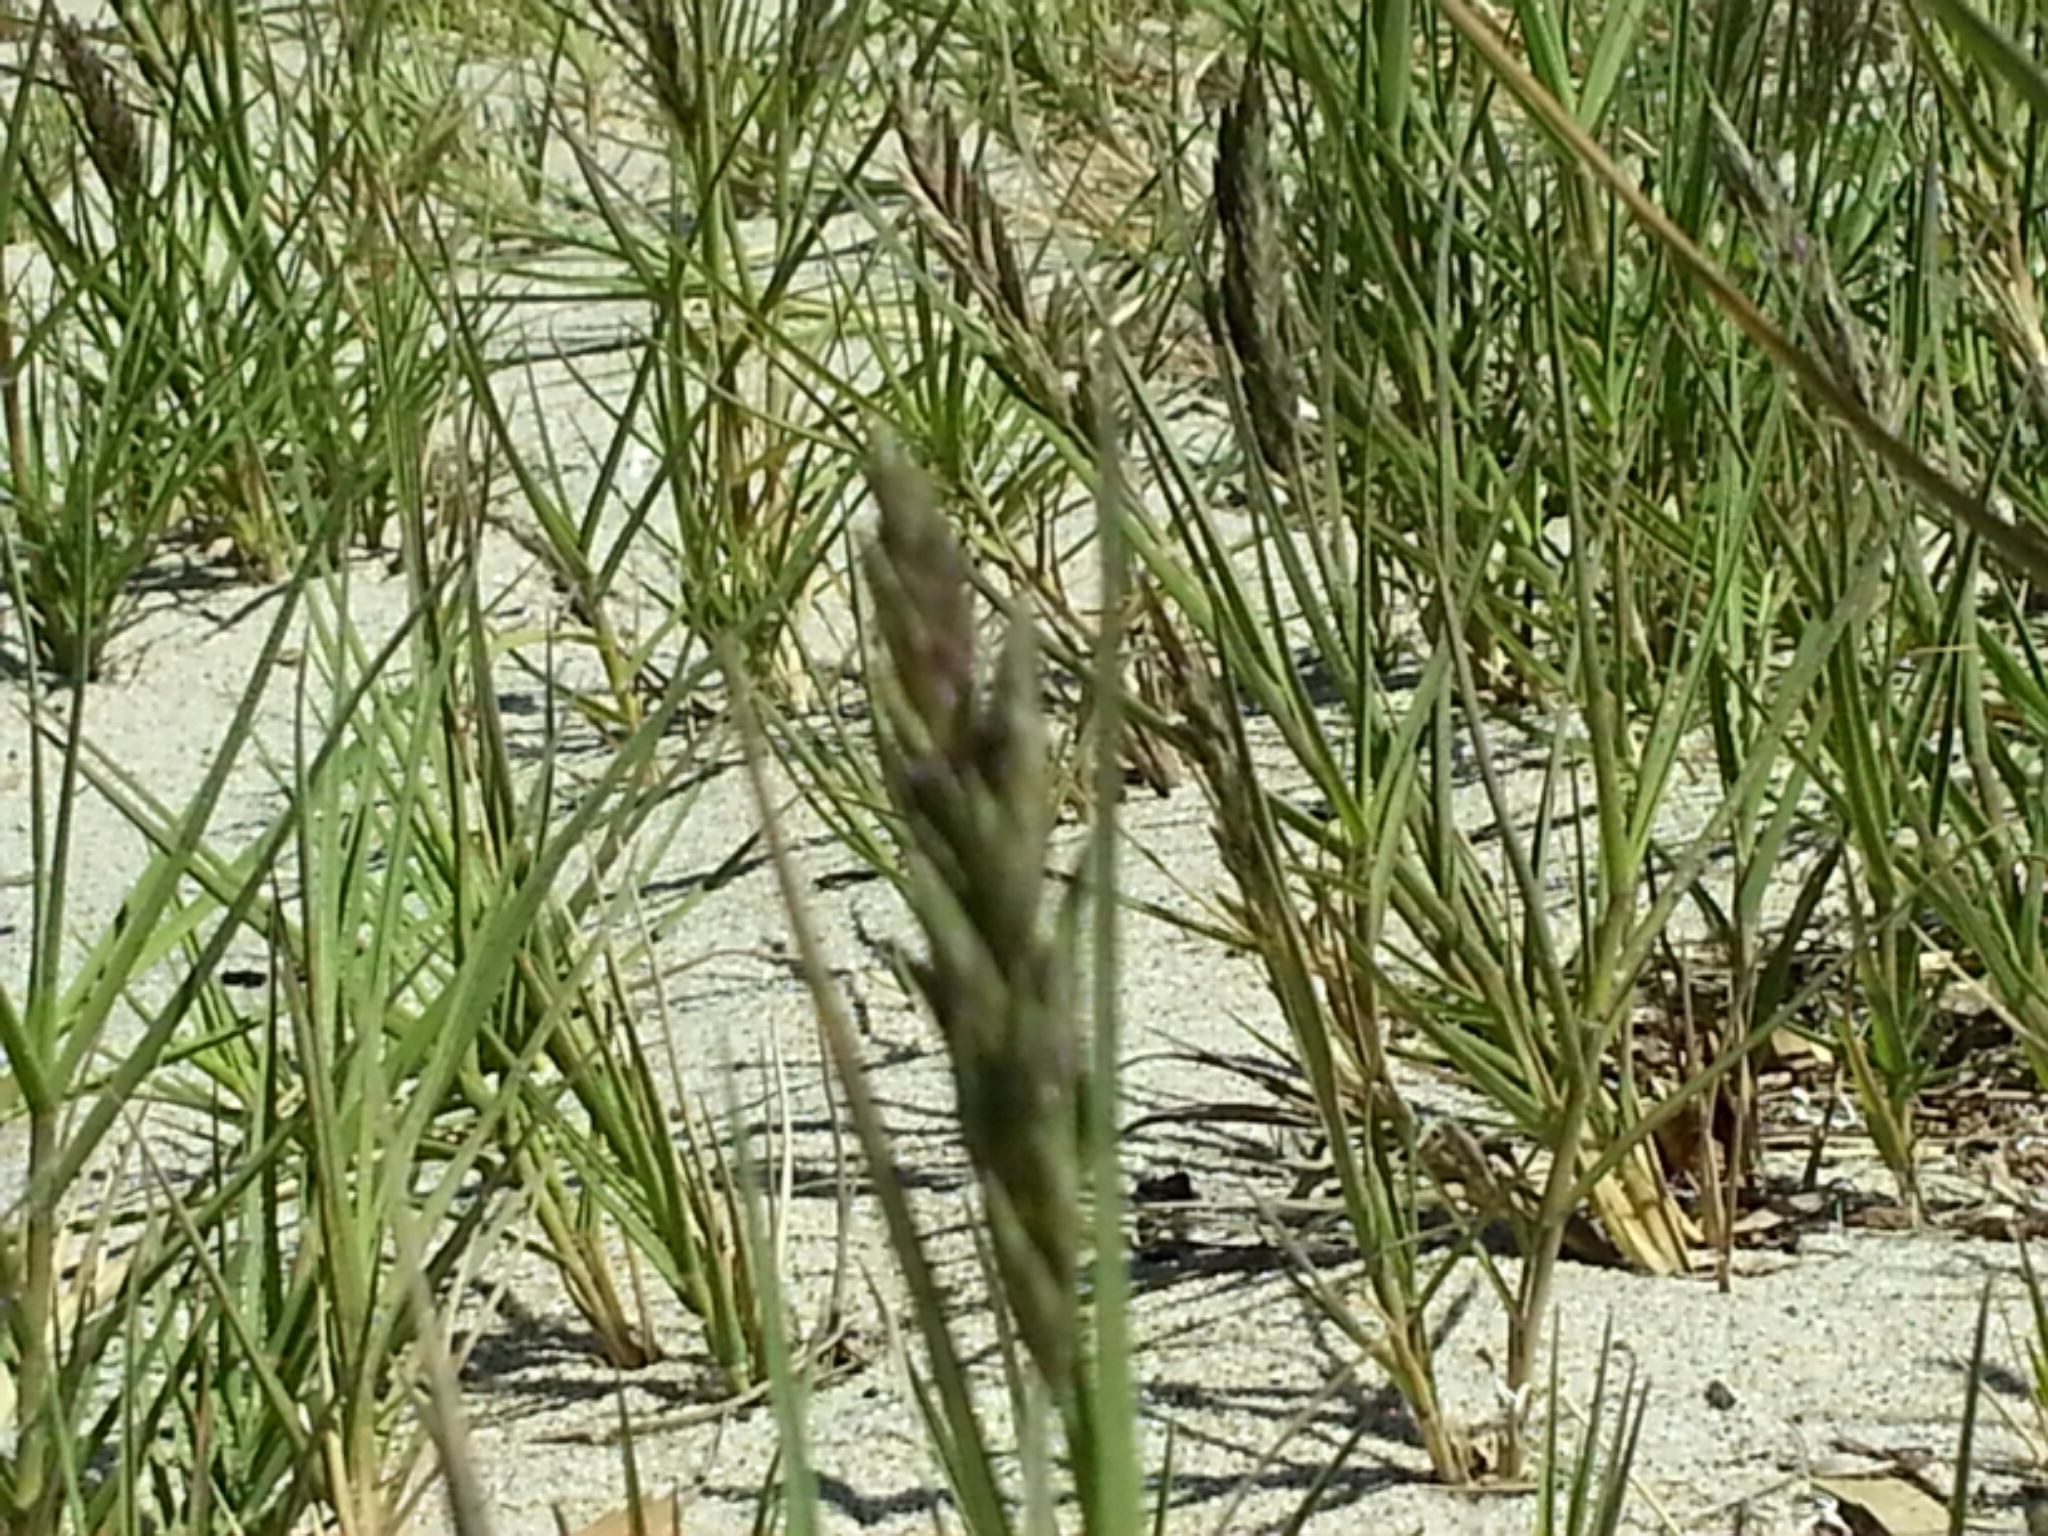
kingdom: Plantae
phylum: Tracheophyta
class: Liliopsida
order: Poales
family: Poaceae
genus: Distichlis
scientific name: Distichlis spicata
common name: Saltgrass
